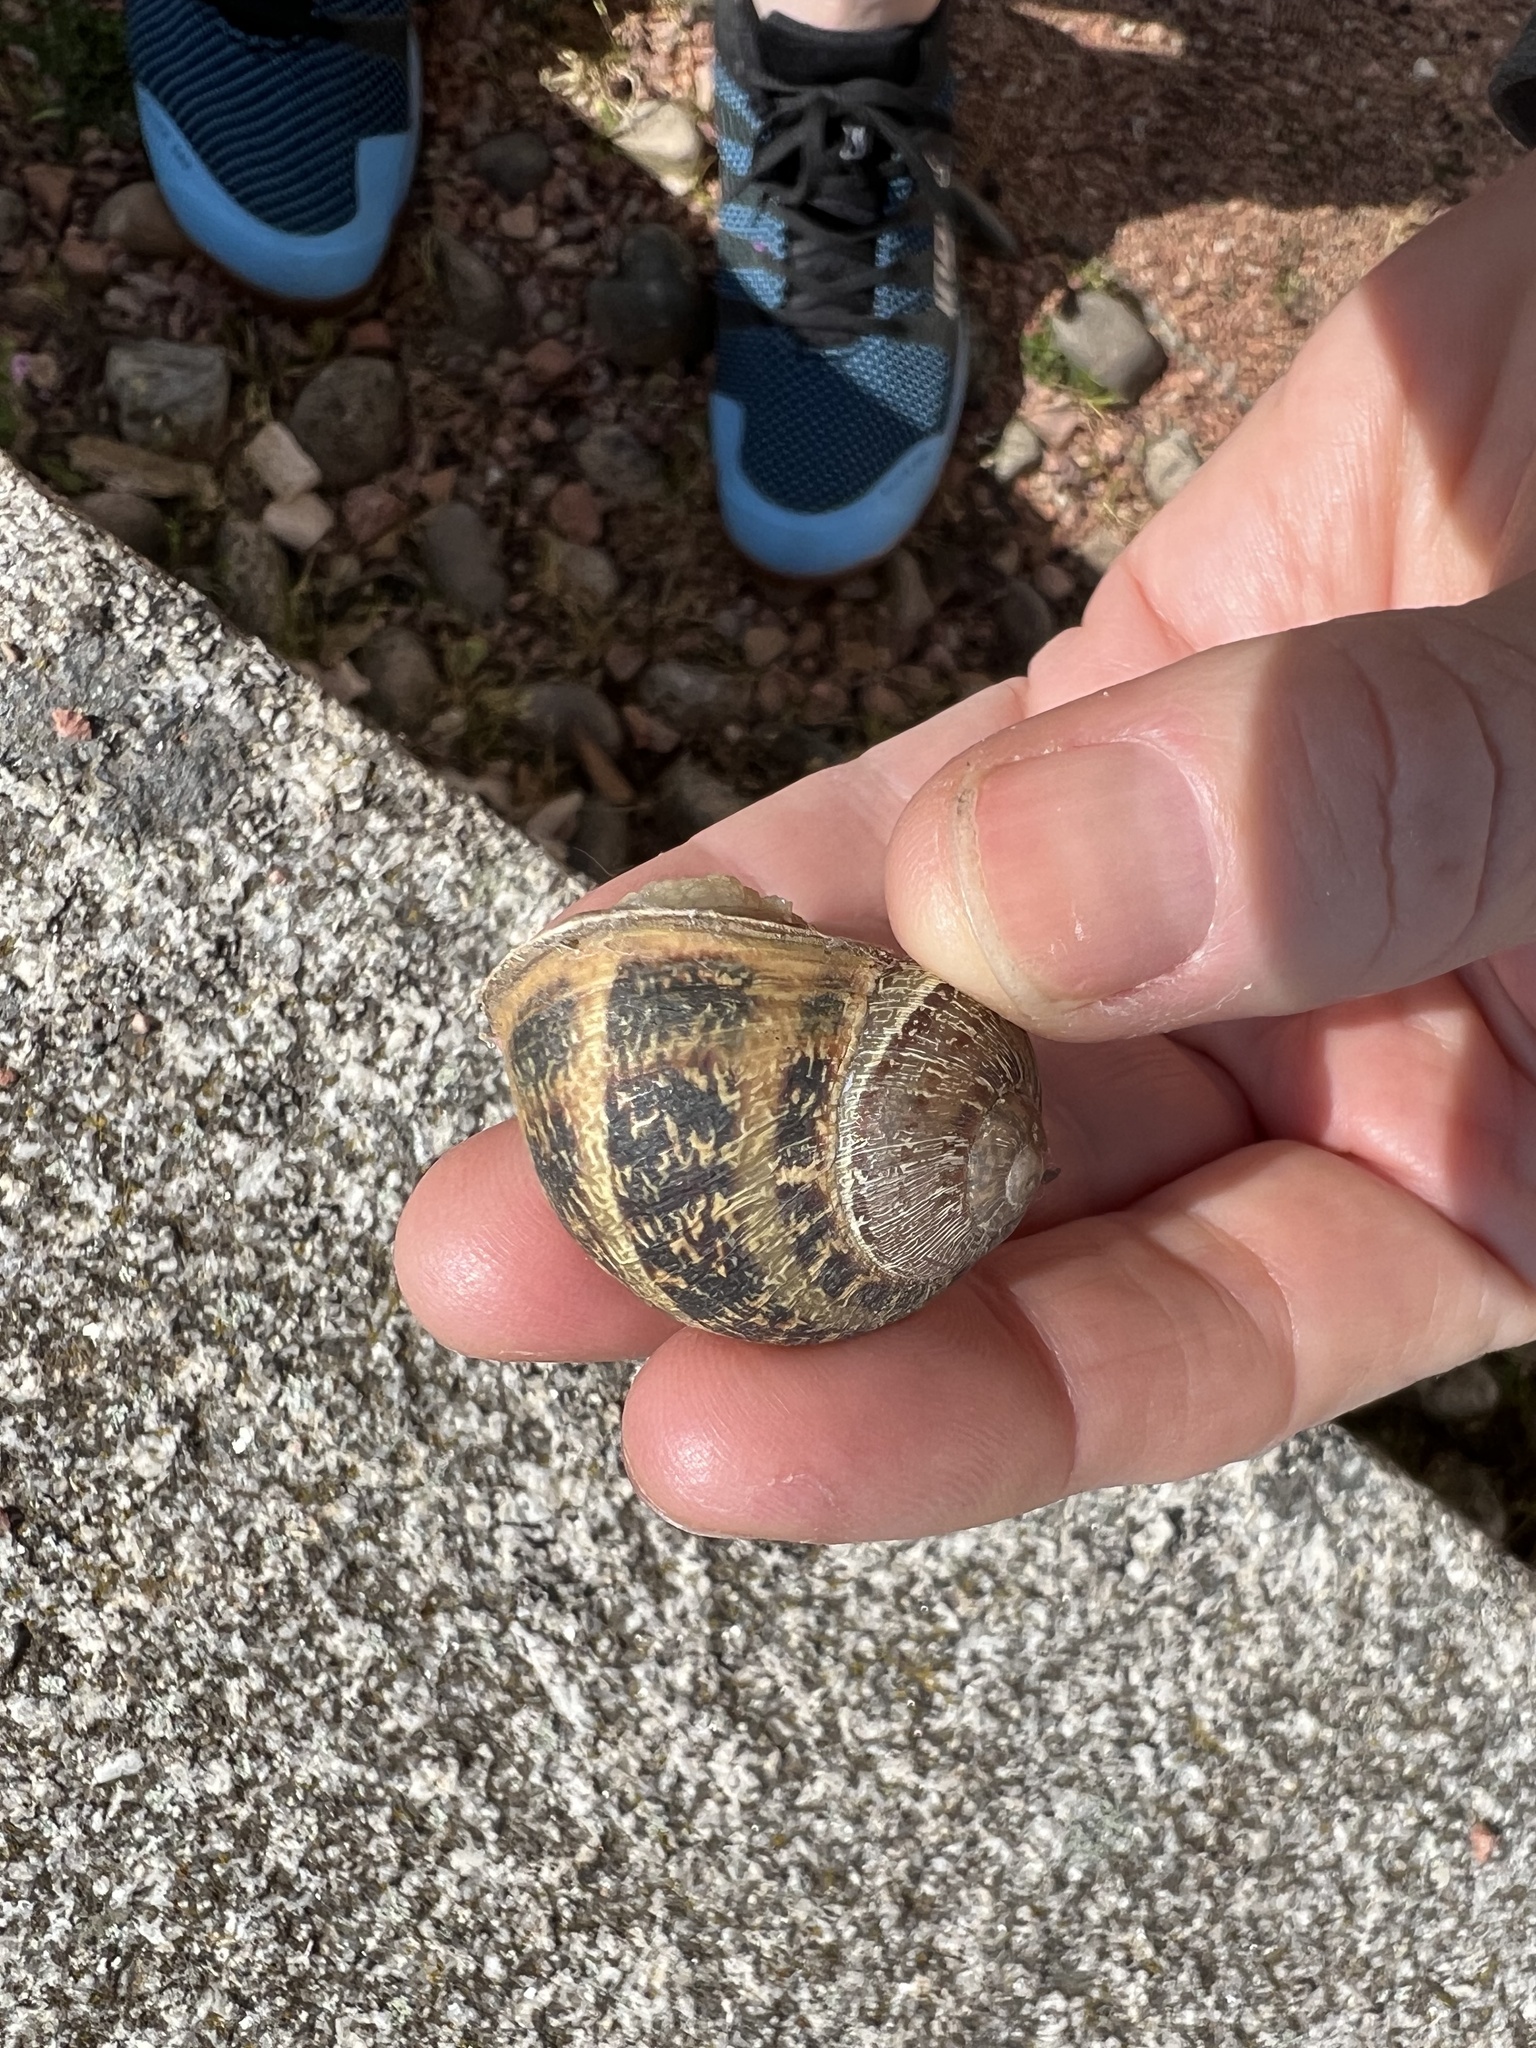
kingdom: Animalia
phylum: Mollusca
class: Gastropoda
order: Stylommatophora
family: Helicidae
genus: Cornu
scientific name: Cornu aspersum
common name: Brown garden snail
